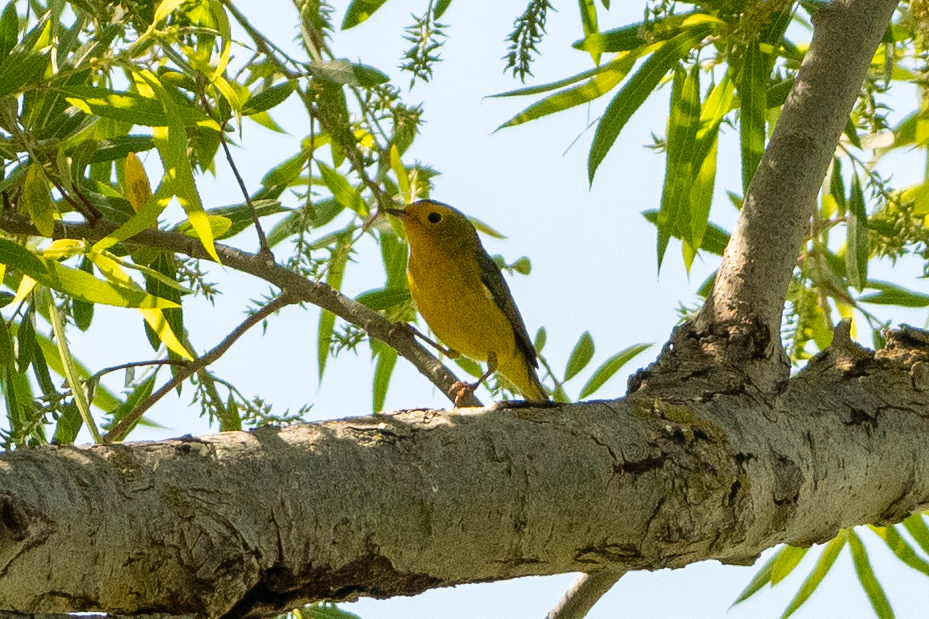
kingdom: Animalia
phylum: Chordata
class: Aves
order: Passeriformes
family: Parulidae
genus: Cardellina
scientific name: Cardellina pusilla
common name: Wilson's warbler
